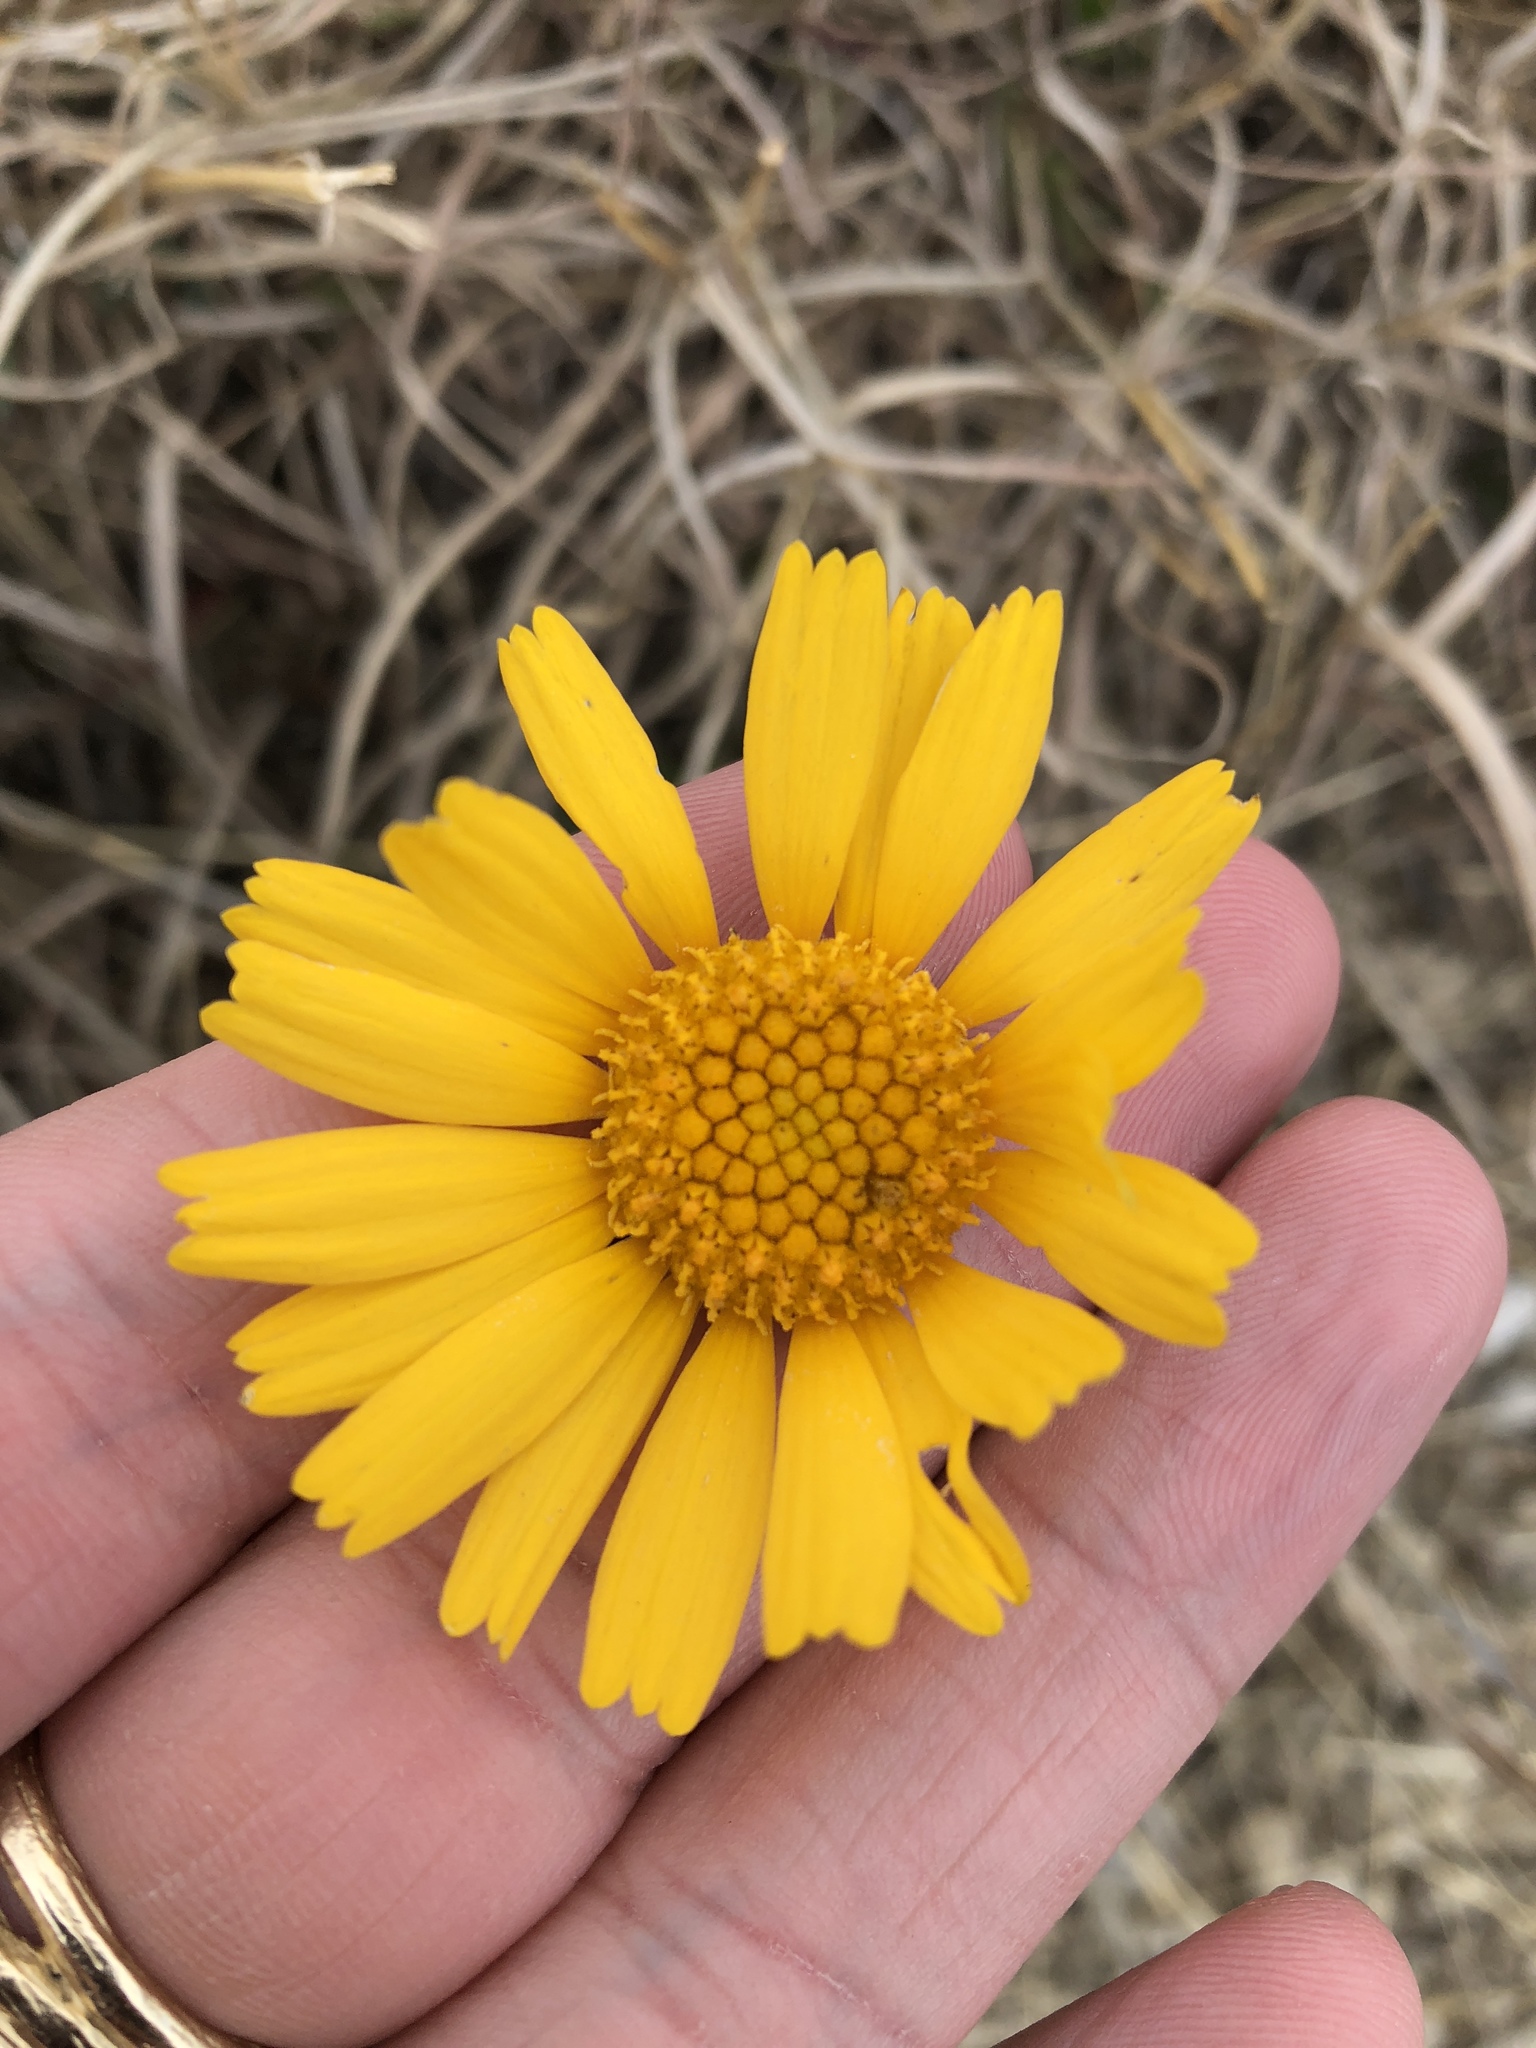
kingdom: Plantae
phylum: Tracheophyta
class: Magnoliopsida
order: Asterales
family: Asteraceae
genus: Tetraneuris
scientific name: Tetraneuris scaposa
